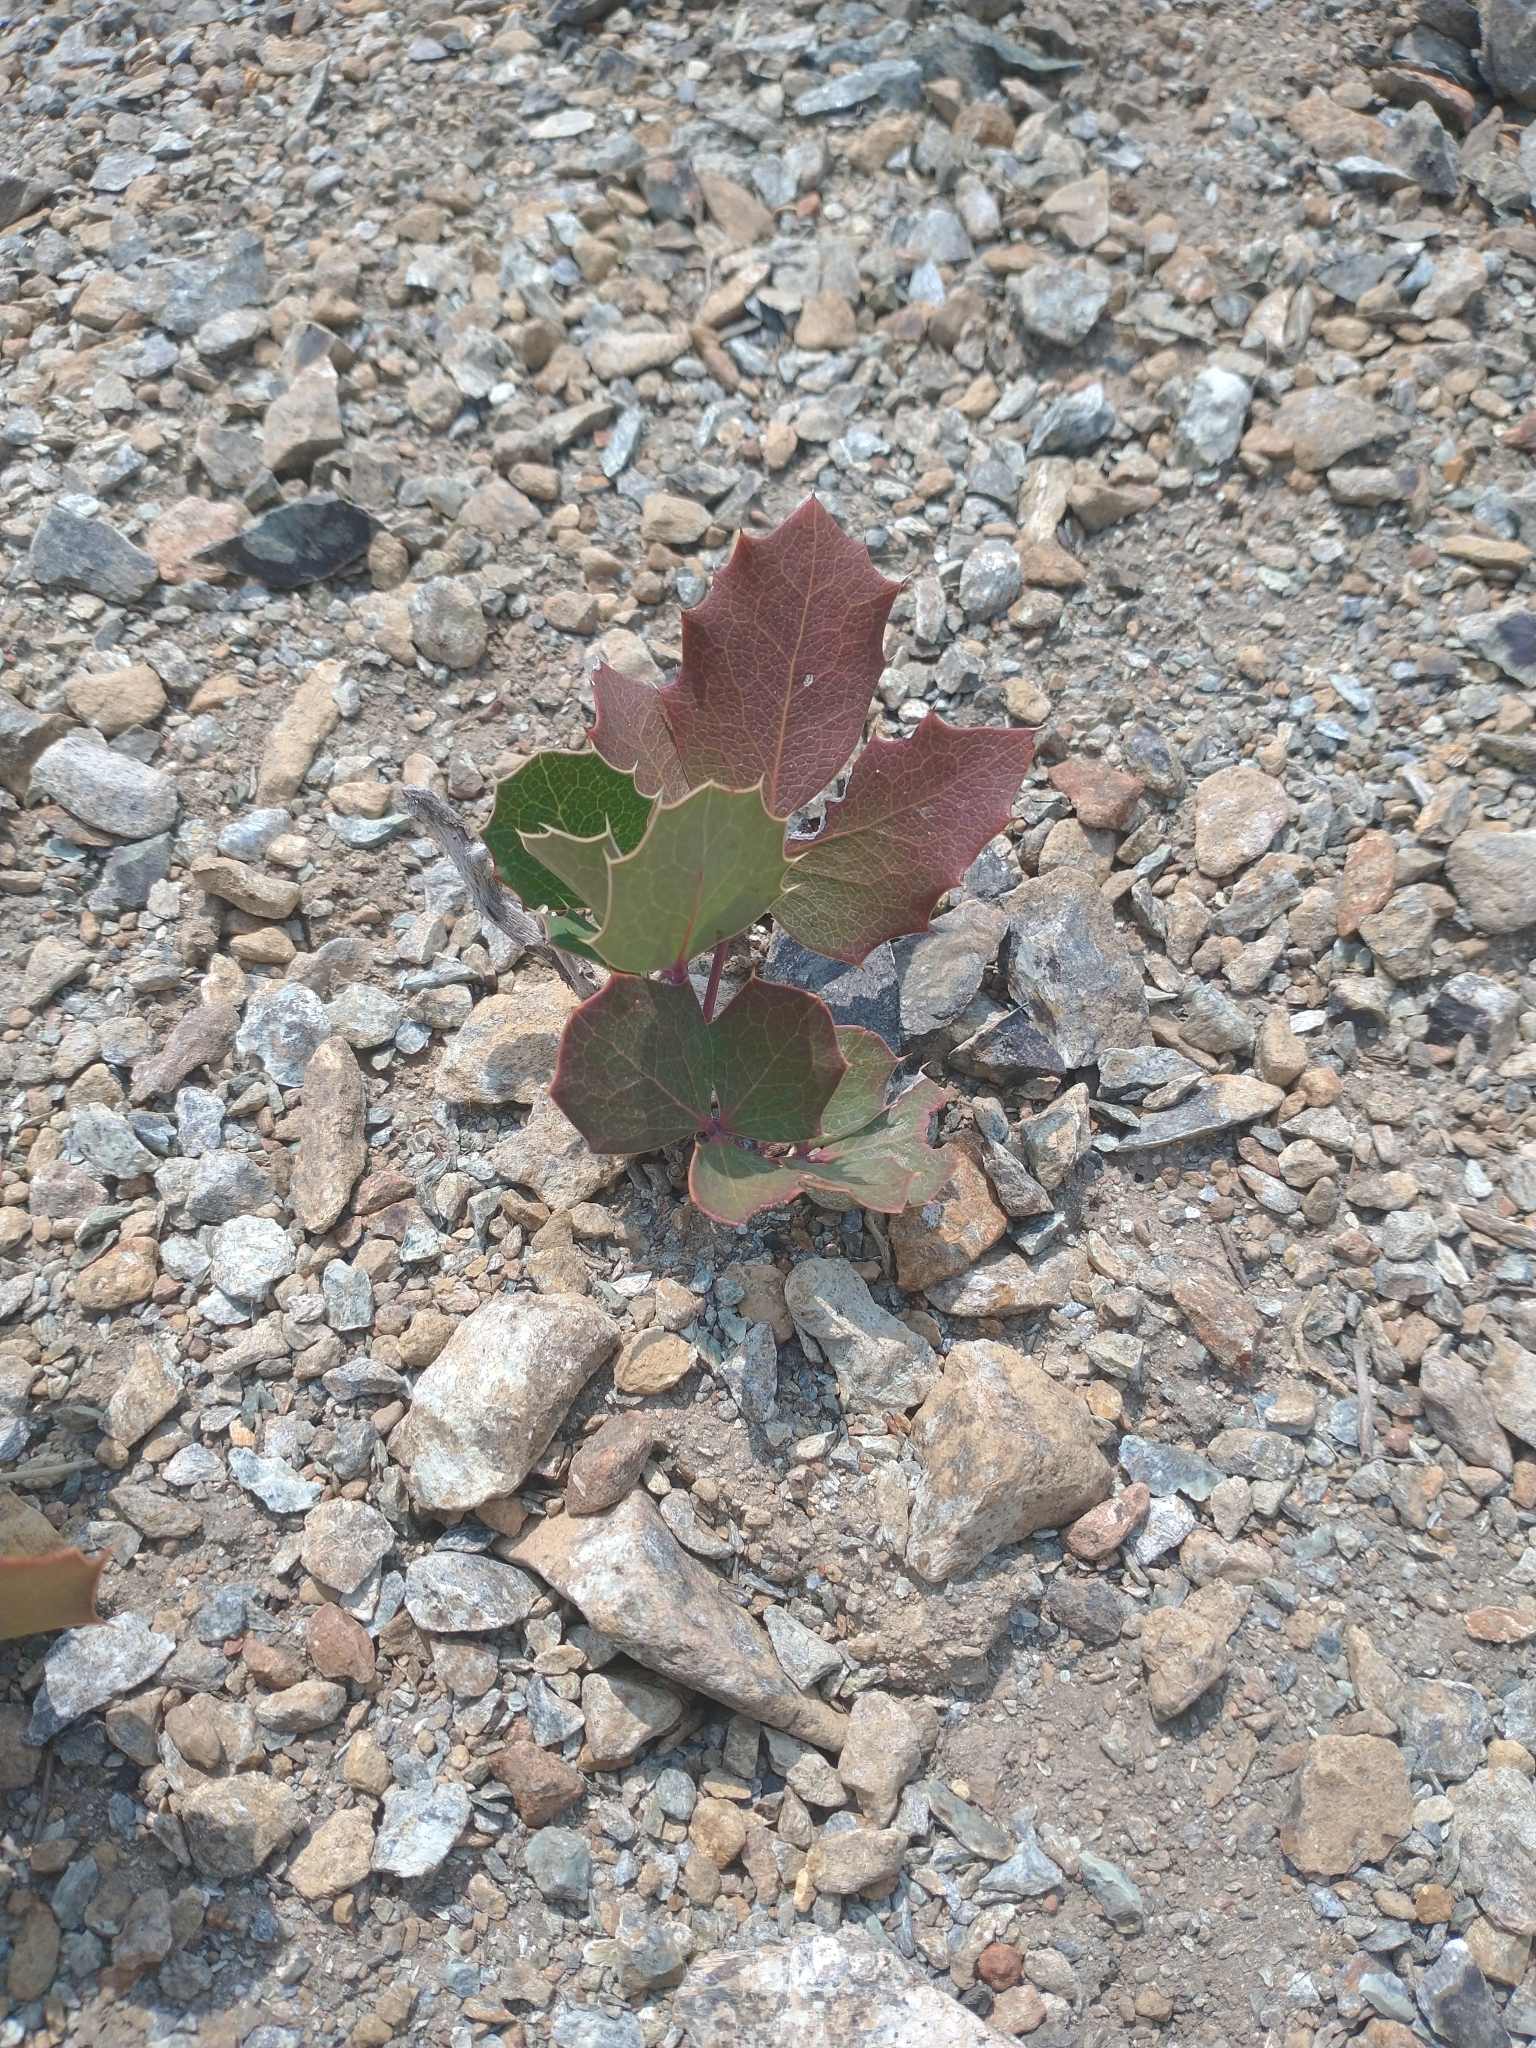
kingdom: Plantae
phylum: Tracheophyta
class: Magnoliopsida
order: Ranunculales
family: Berberidaceae
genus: Mahonia
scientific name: Mahonia repens
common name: Creeping oregon-grape
